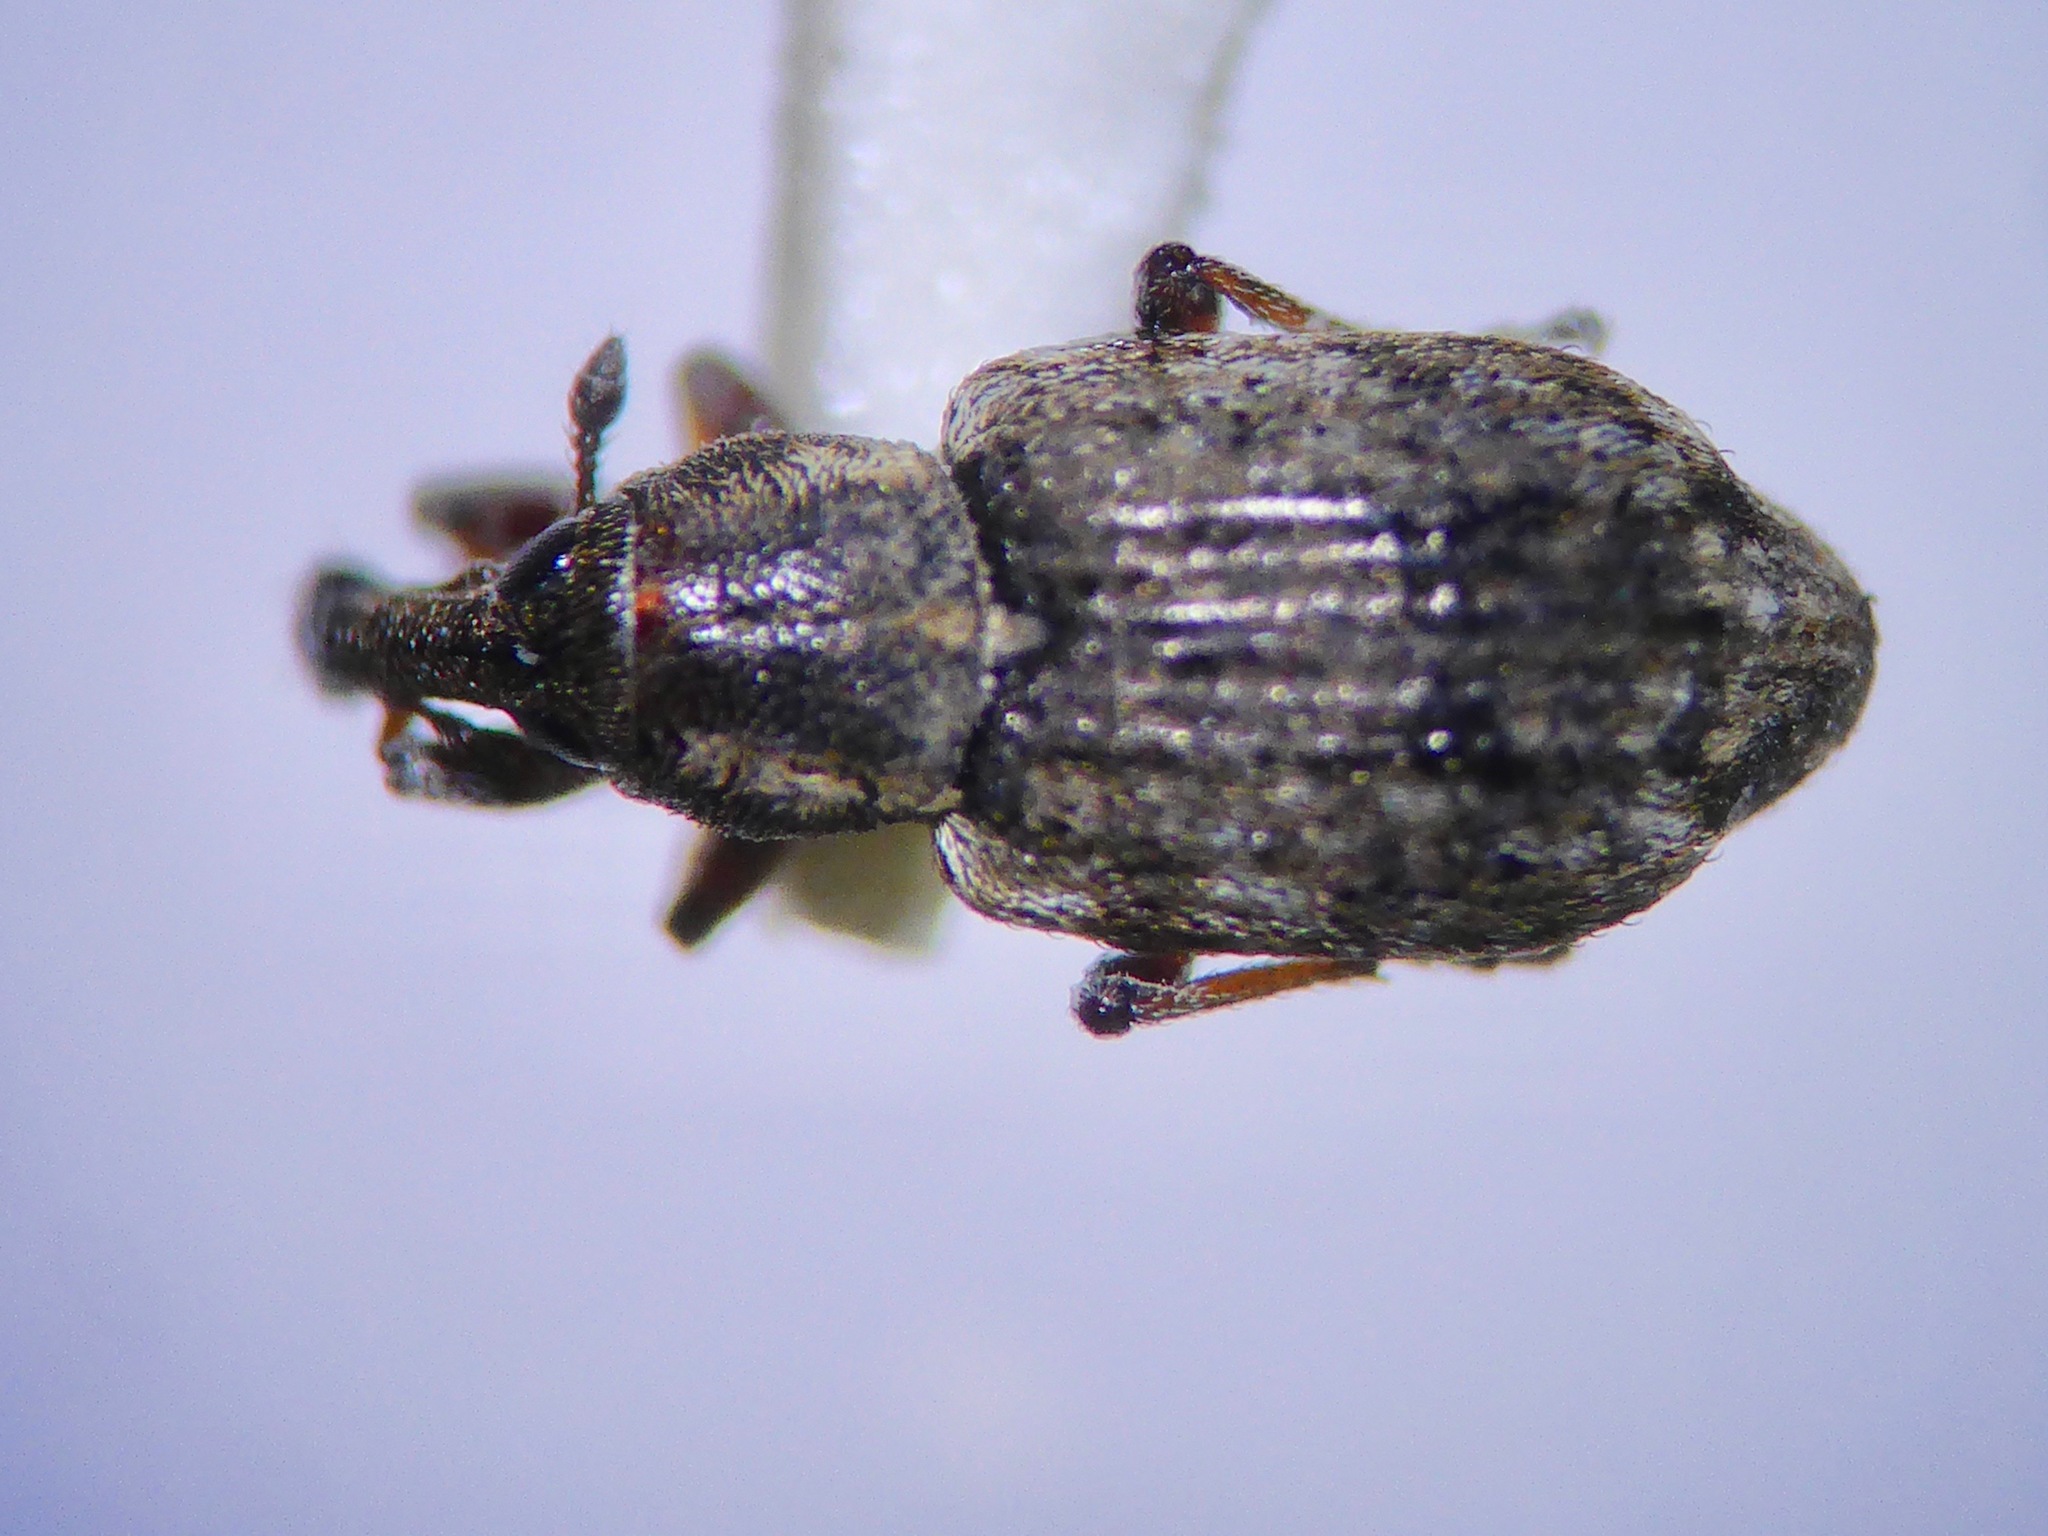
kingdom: Animalia
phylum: Arthropoda
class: Insecta
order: Coleoptera
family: Curculionidae
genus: Steriphus
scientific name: Steriphus
